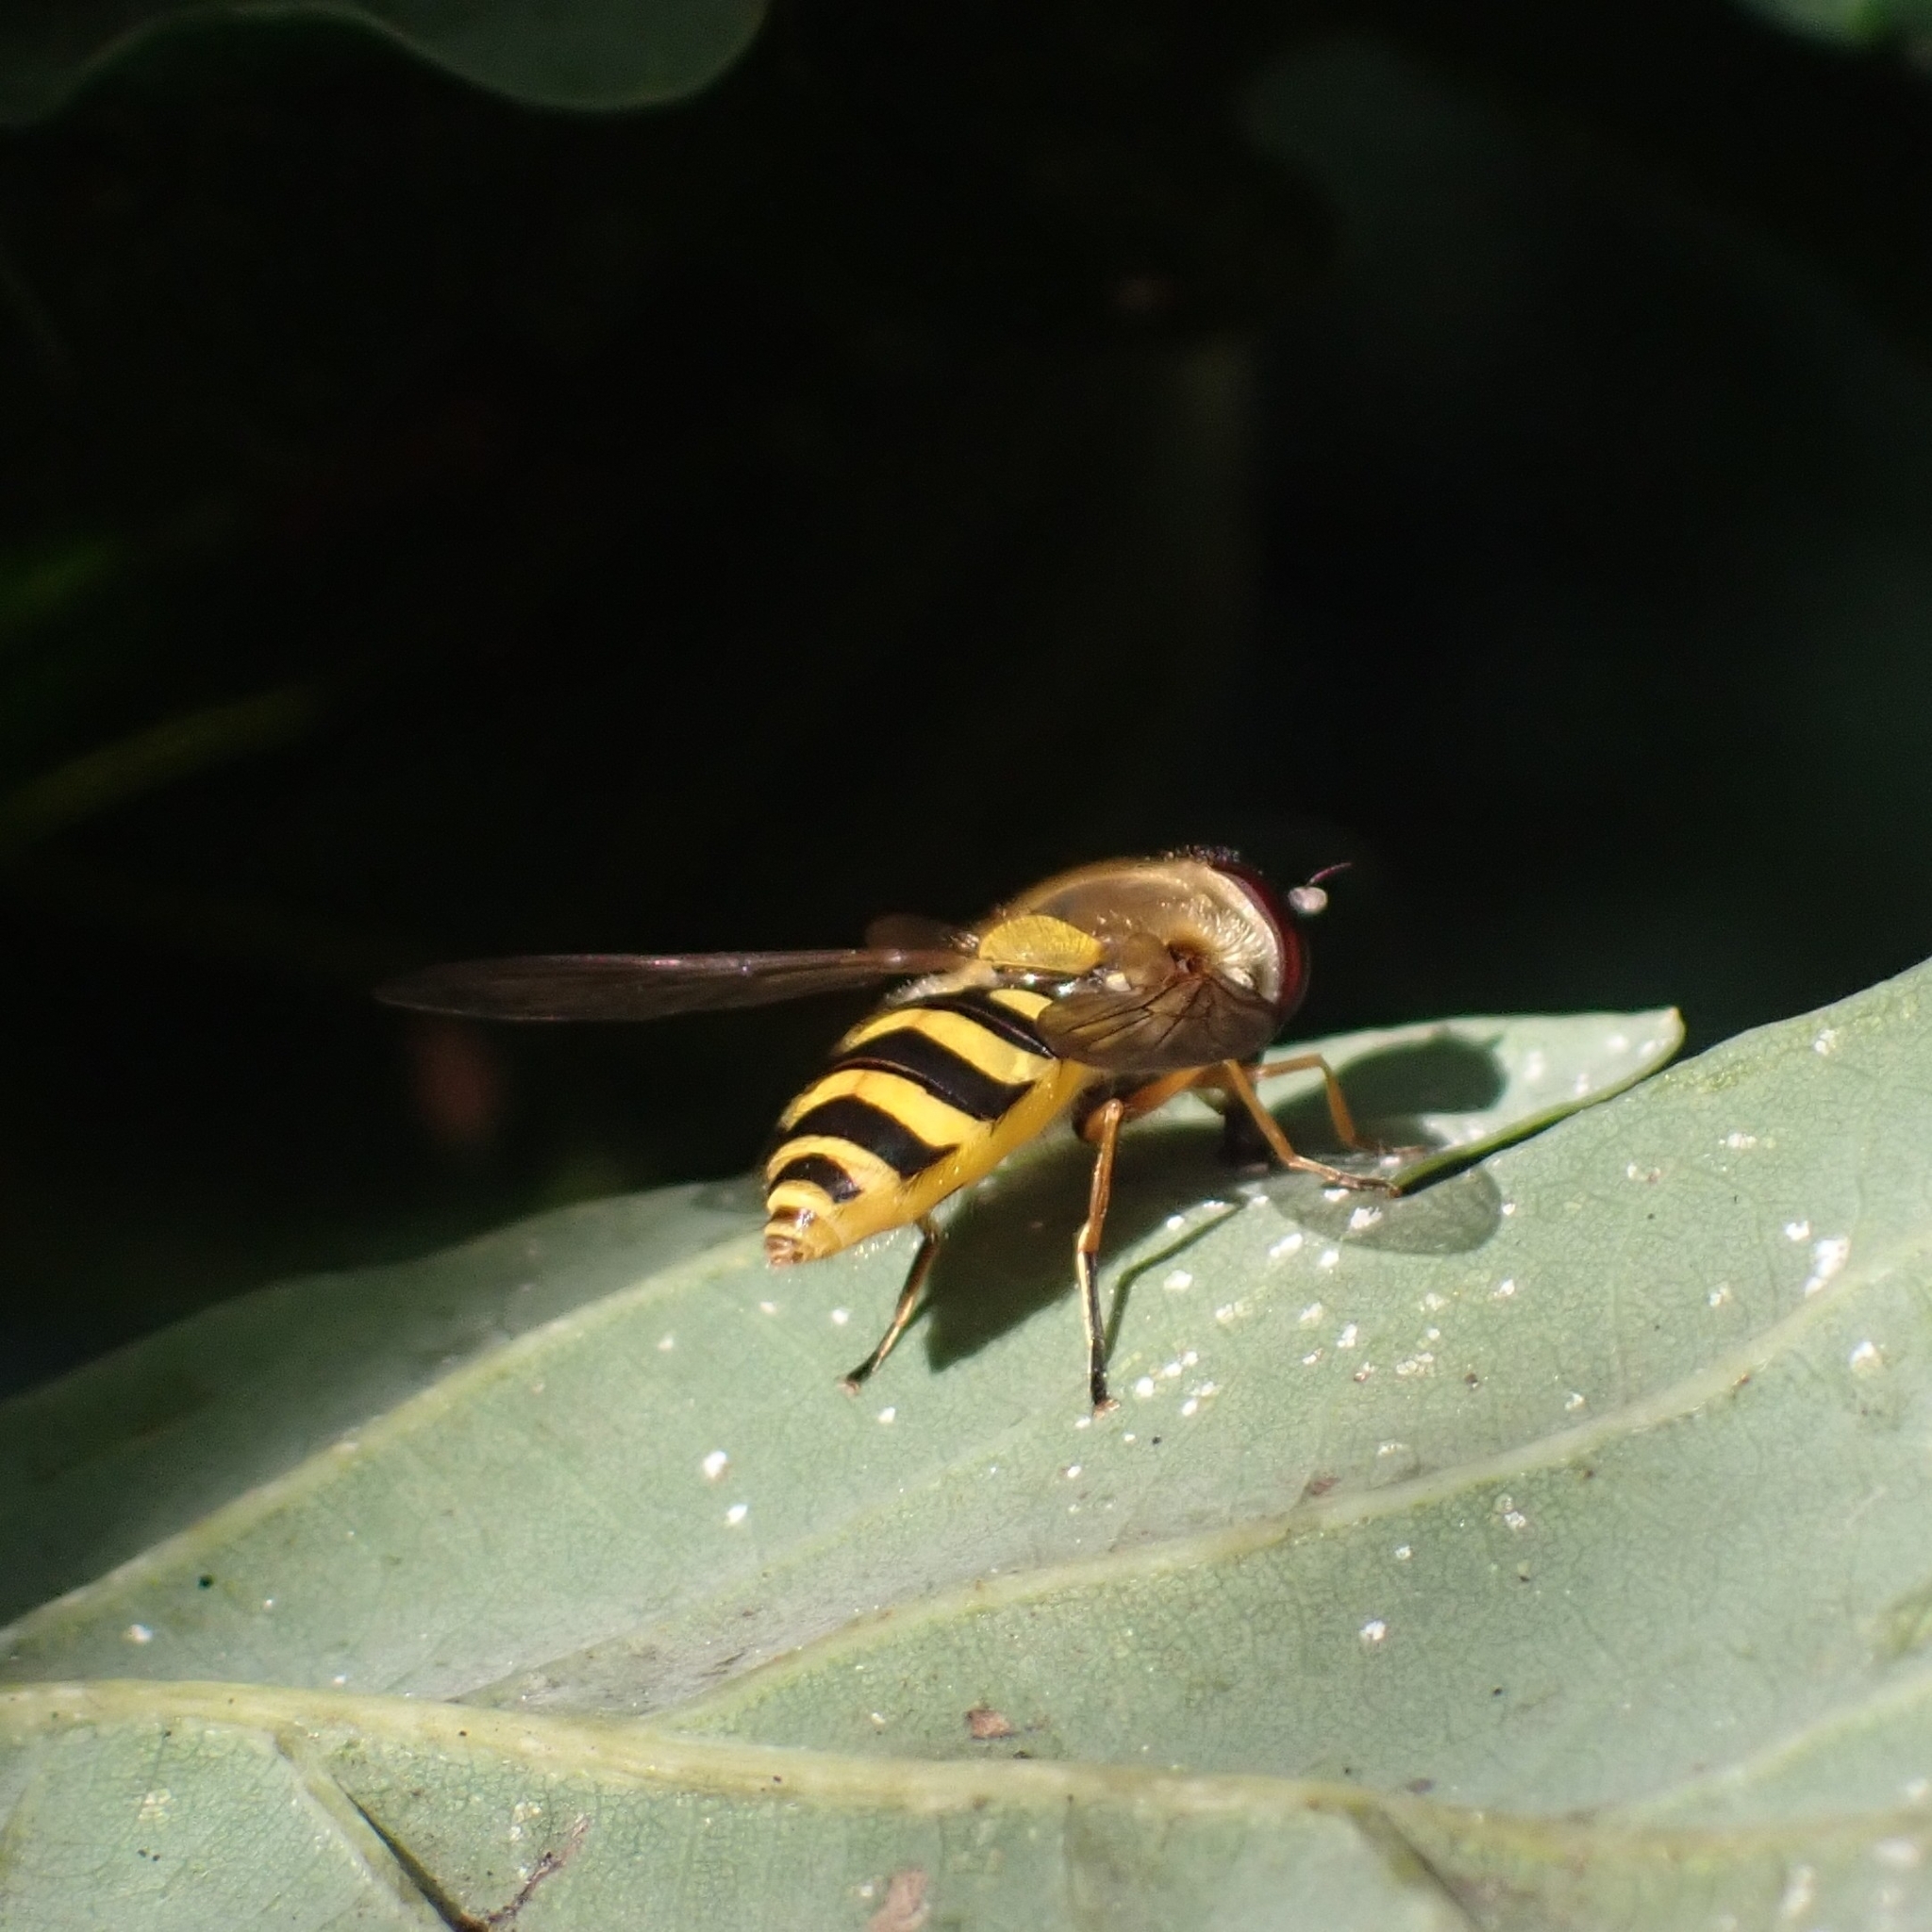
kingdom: Animalia
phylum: Arthropoda
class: Insecta
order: Diptera
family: Syrphidae
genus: Syrphus
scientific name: Syrphus ribesii
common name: Common flower fly
